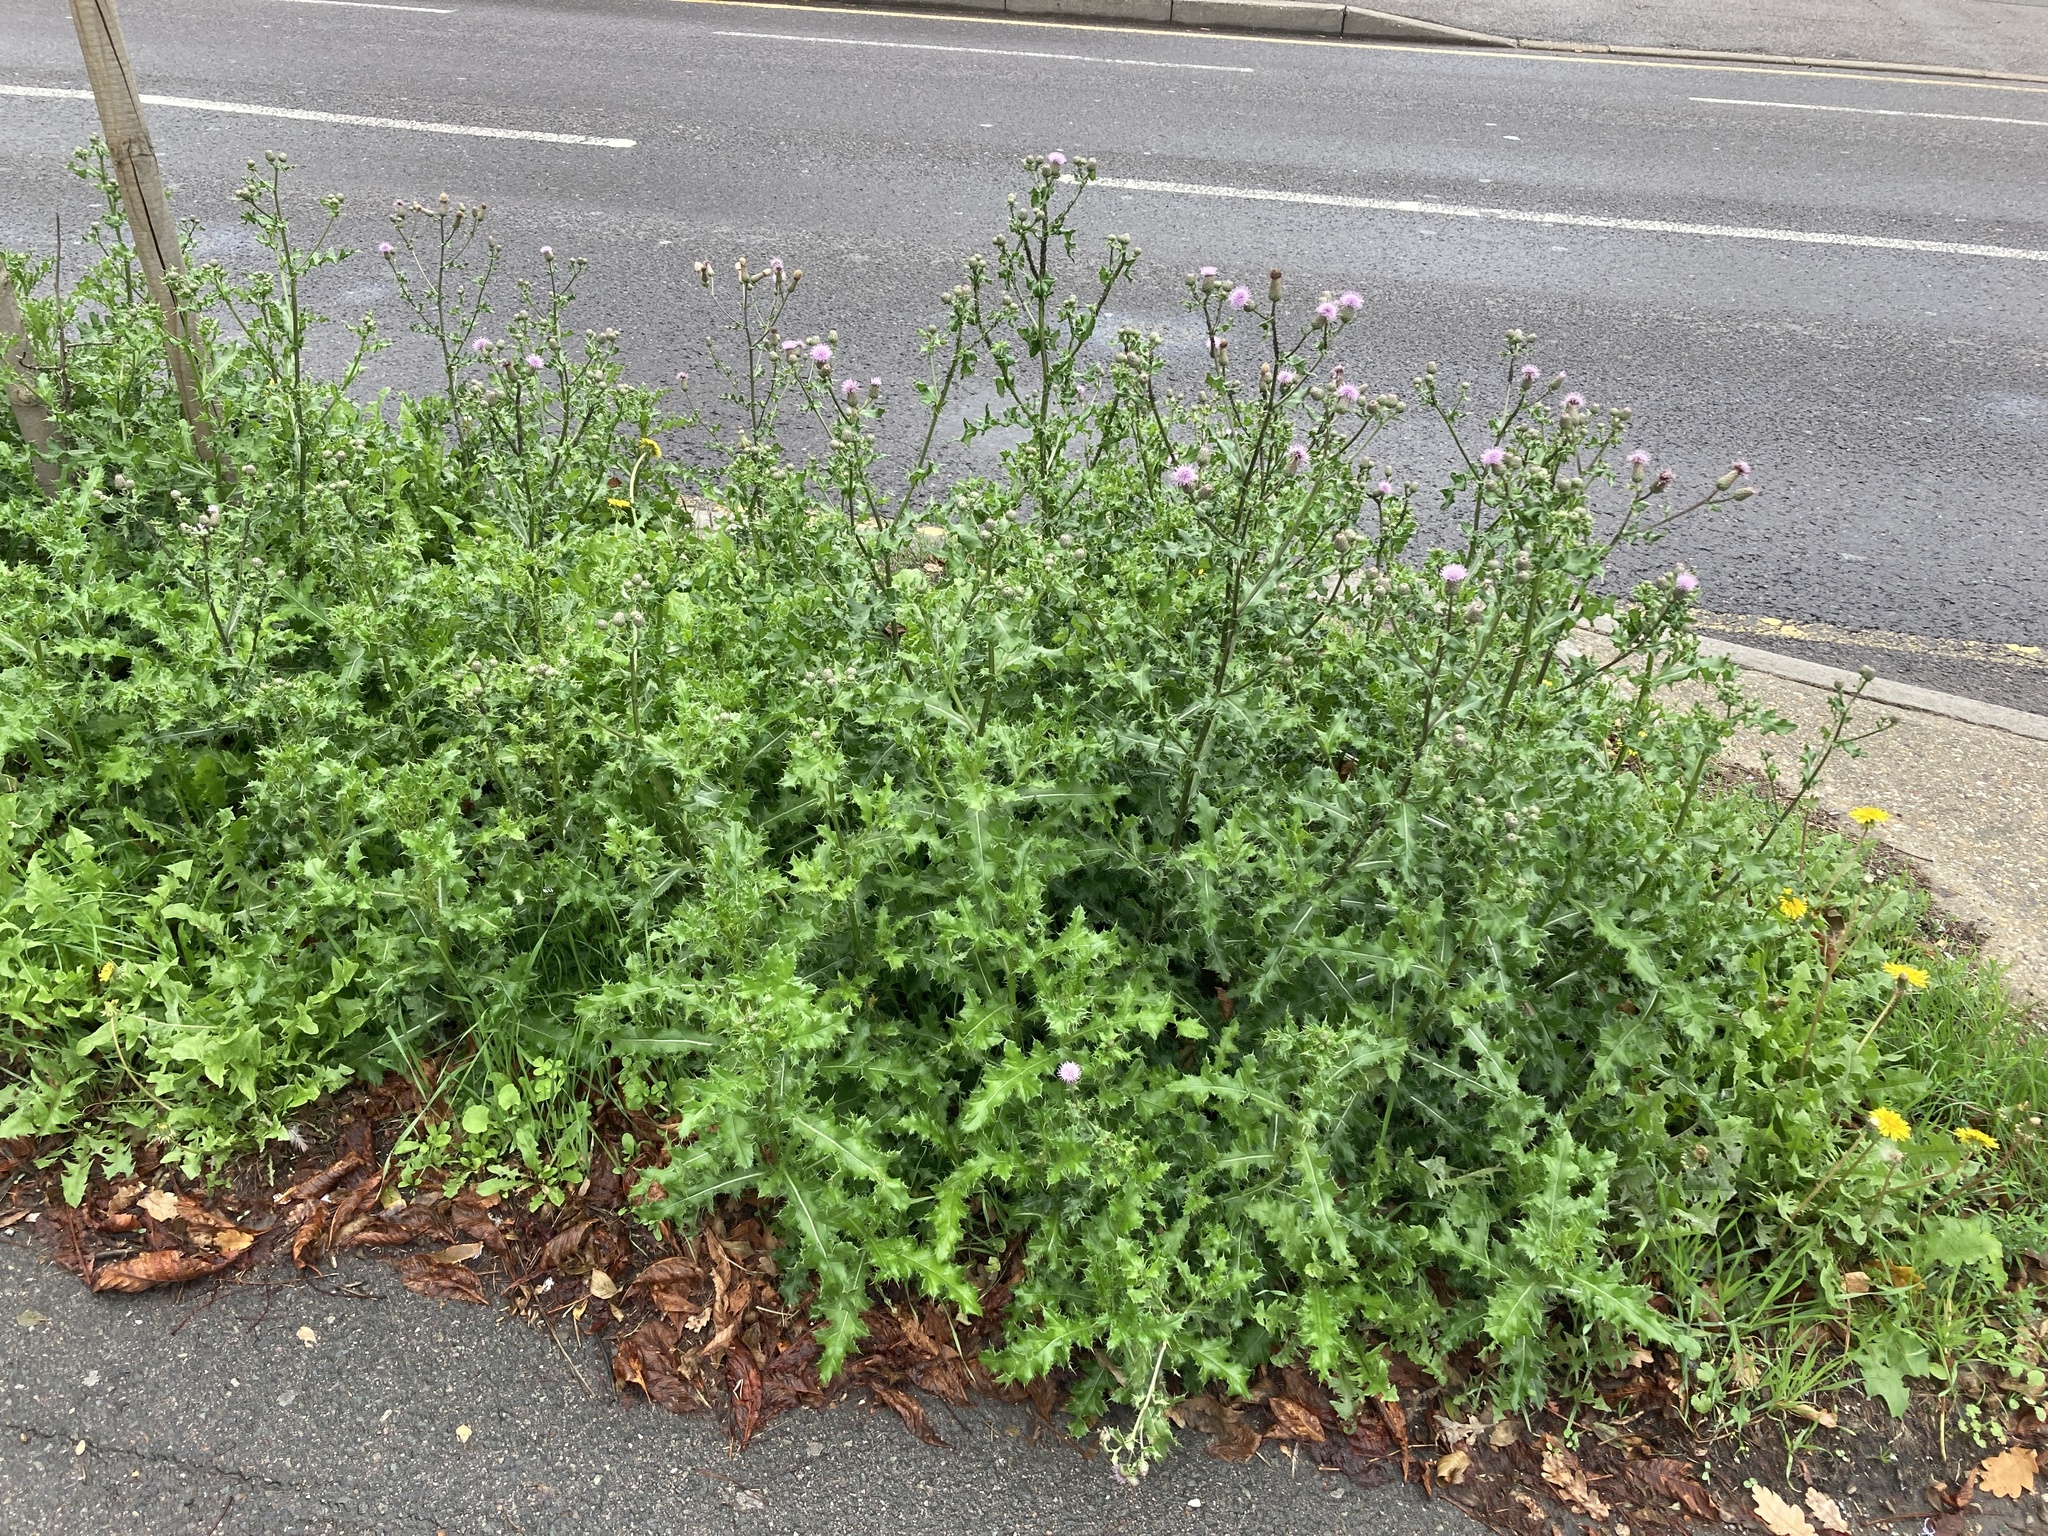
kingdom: Plantae
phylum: Tracheophyta
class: Magnoliopsida
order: Asterales
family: Asteraceae
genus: Cirsium
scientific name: Cirsium arvense
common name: Creeping thistle
